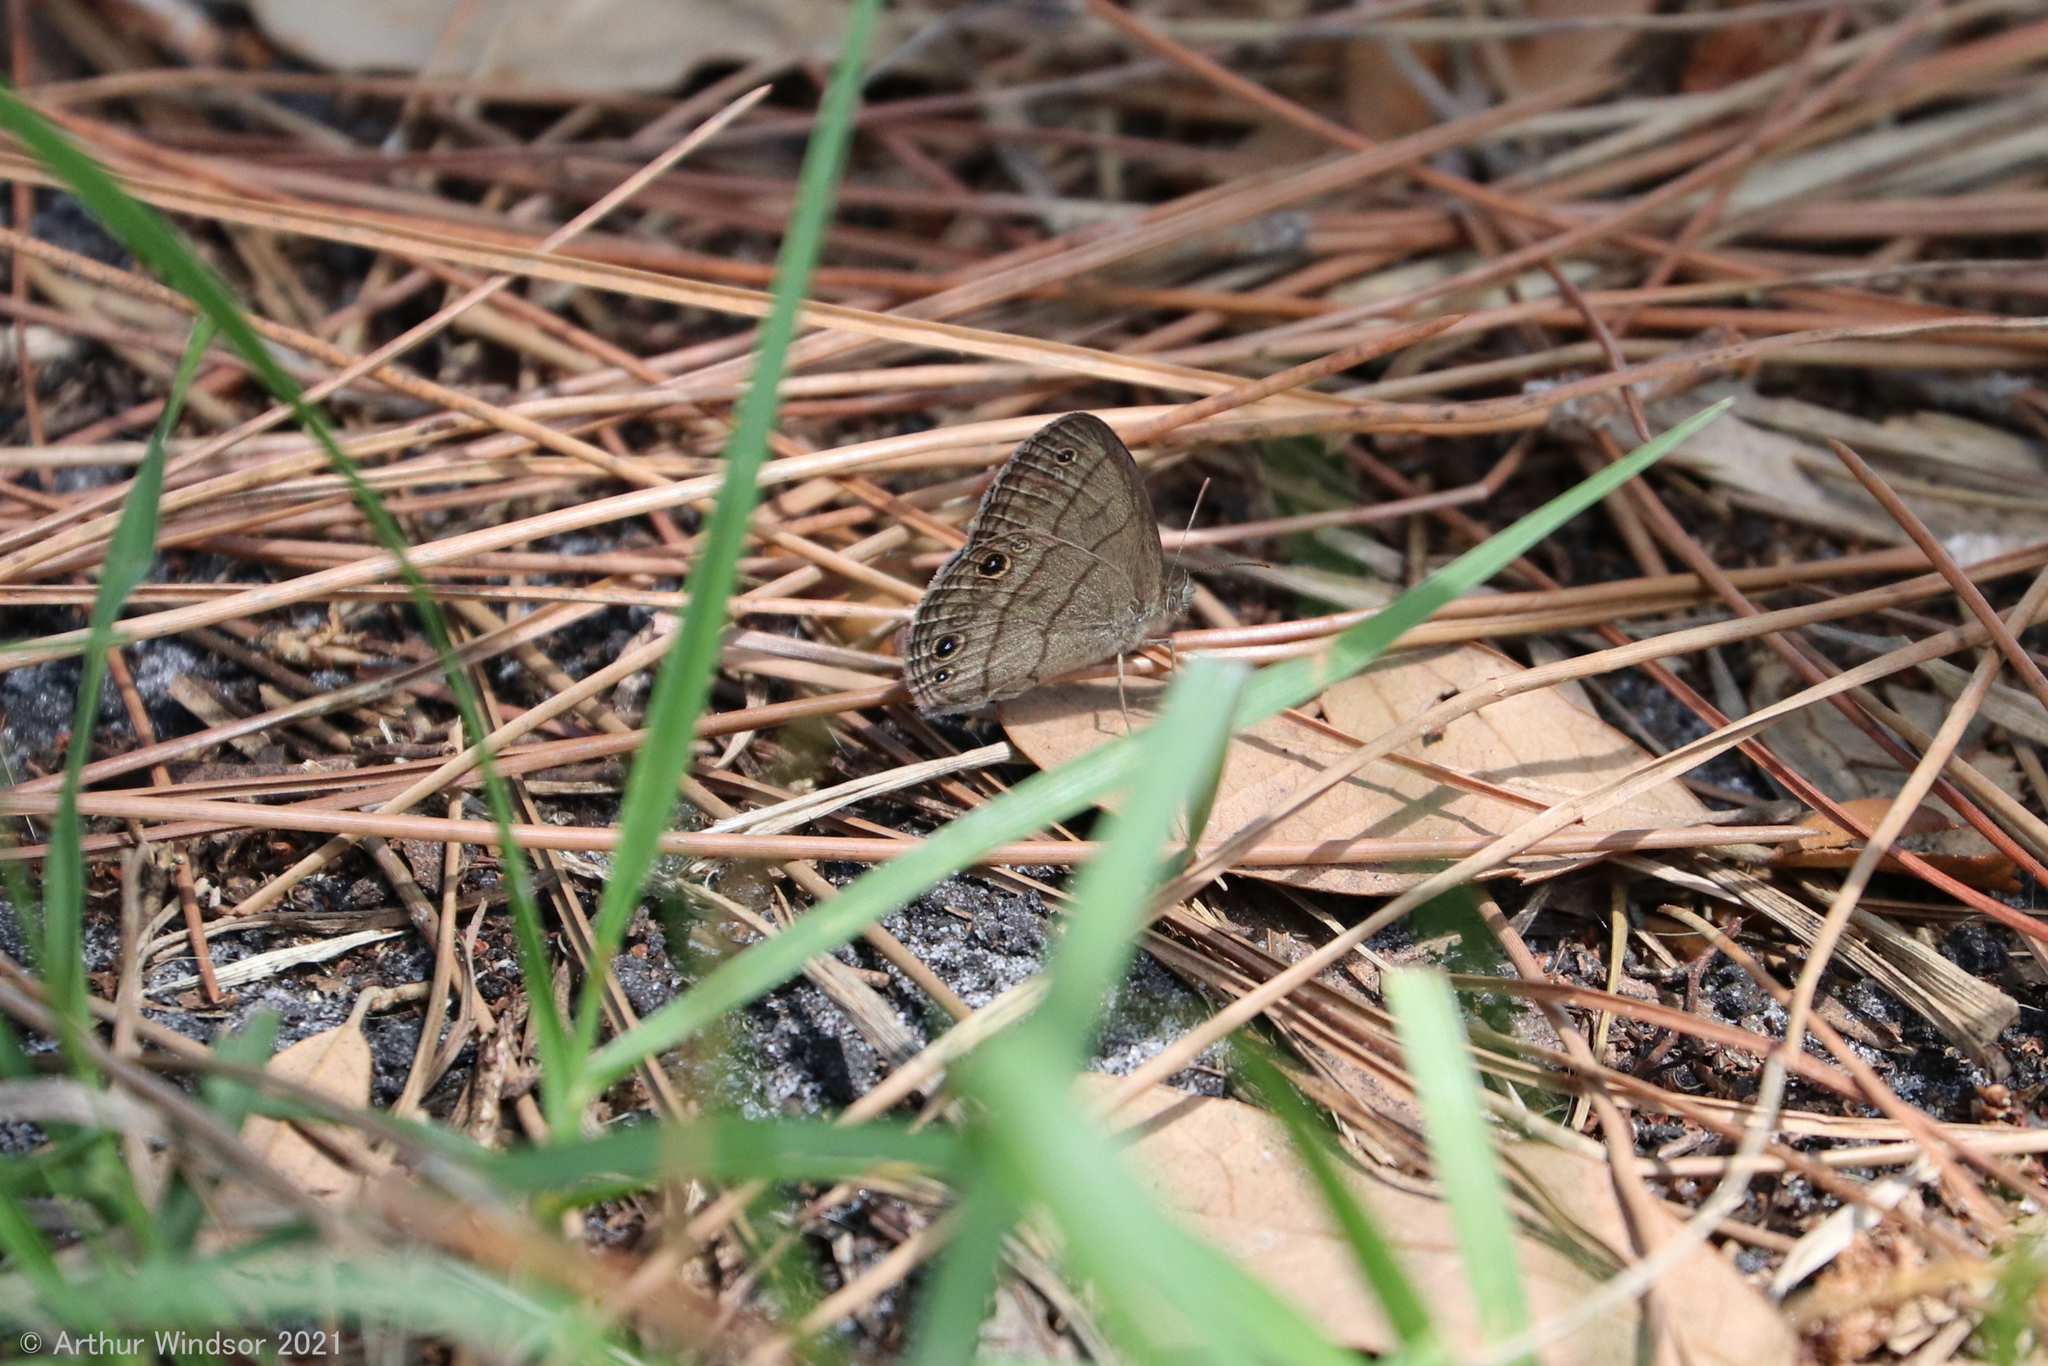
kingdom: Animalia
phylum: Arthropoda
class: Insecta
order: Lepidoptera
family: Nymphalidae
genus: Hermeuptychia
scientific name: Hermeuptychia hermes
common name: Hermes satyr
